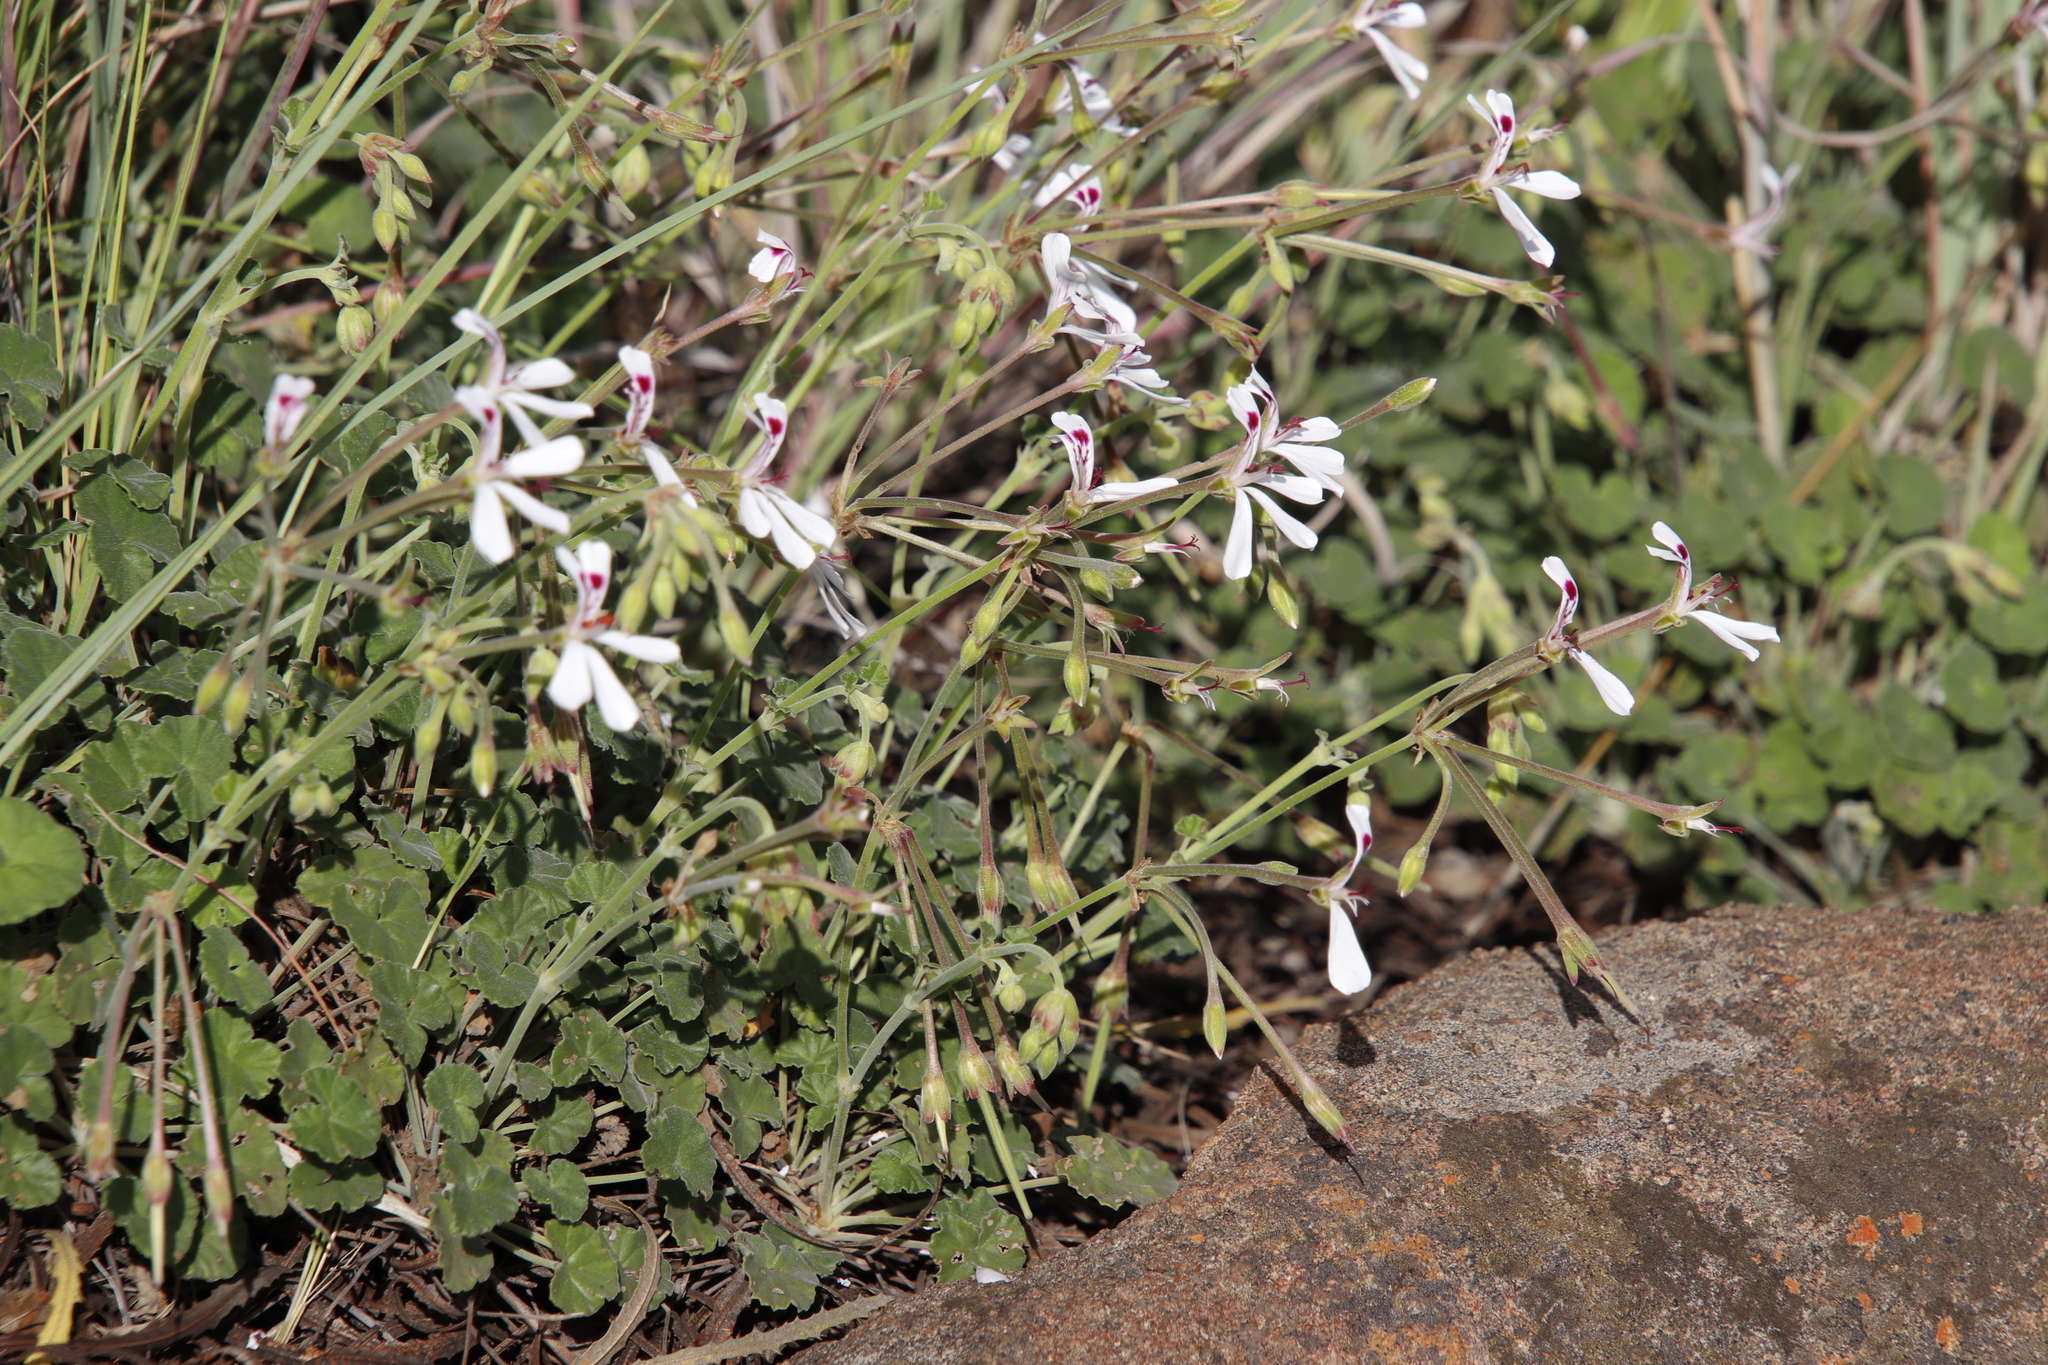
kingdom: Plantae
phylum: Tracheophyta
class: Magnoliopsida
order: Geraniales
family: Geraniaceae
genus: Pelargonium
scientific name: Pelargonium dichondrifolium
